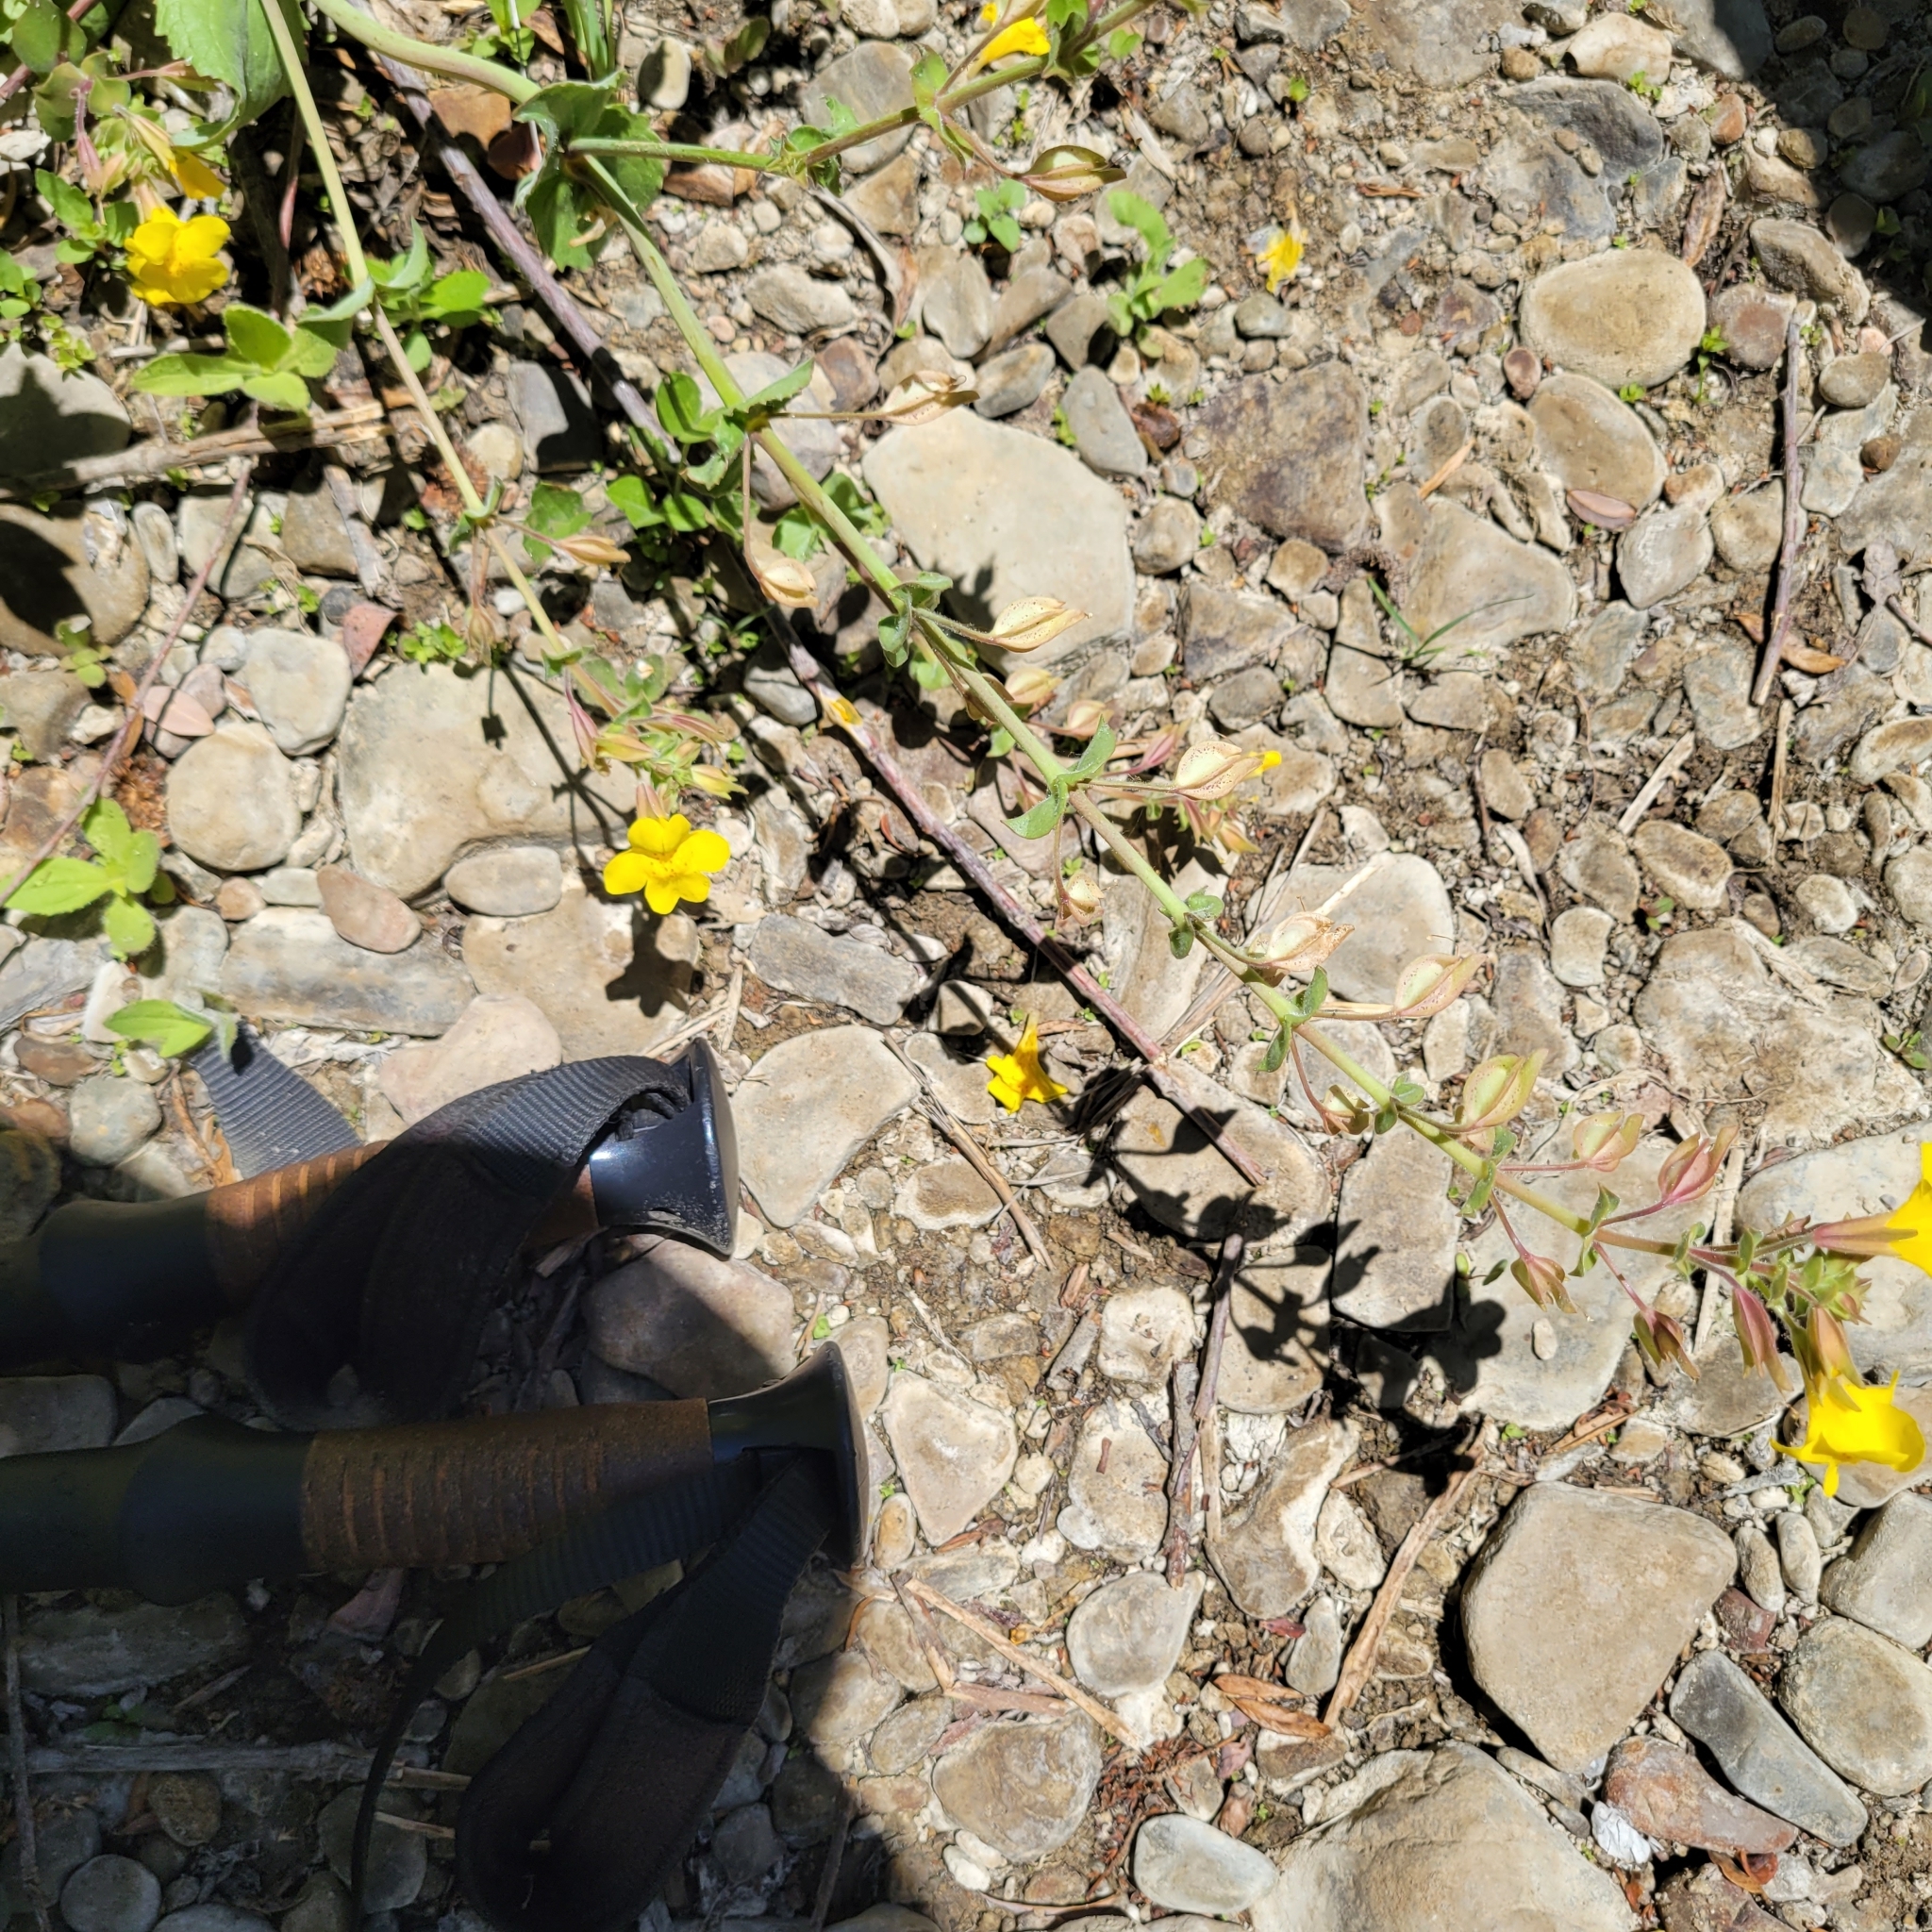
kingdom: Plantae
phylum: Tracheophyta
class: Magnoliopsida
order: Lamiales
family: Phrymaceae
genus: Erythranthe
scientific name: Erythranthe guttata
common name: Monkeyflower
